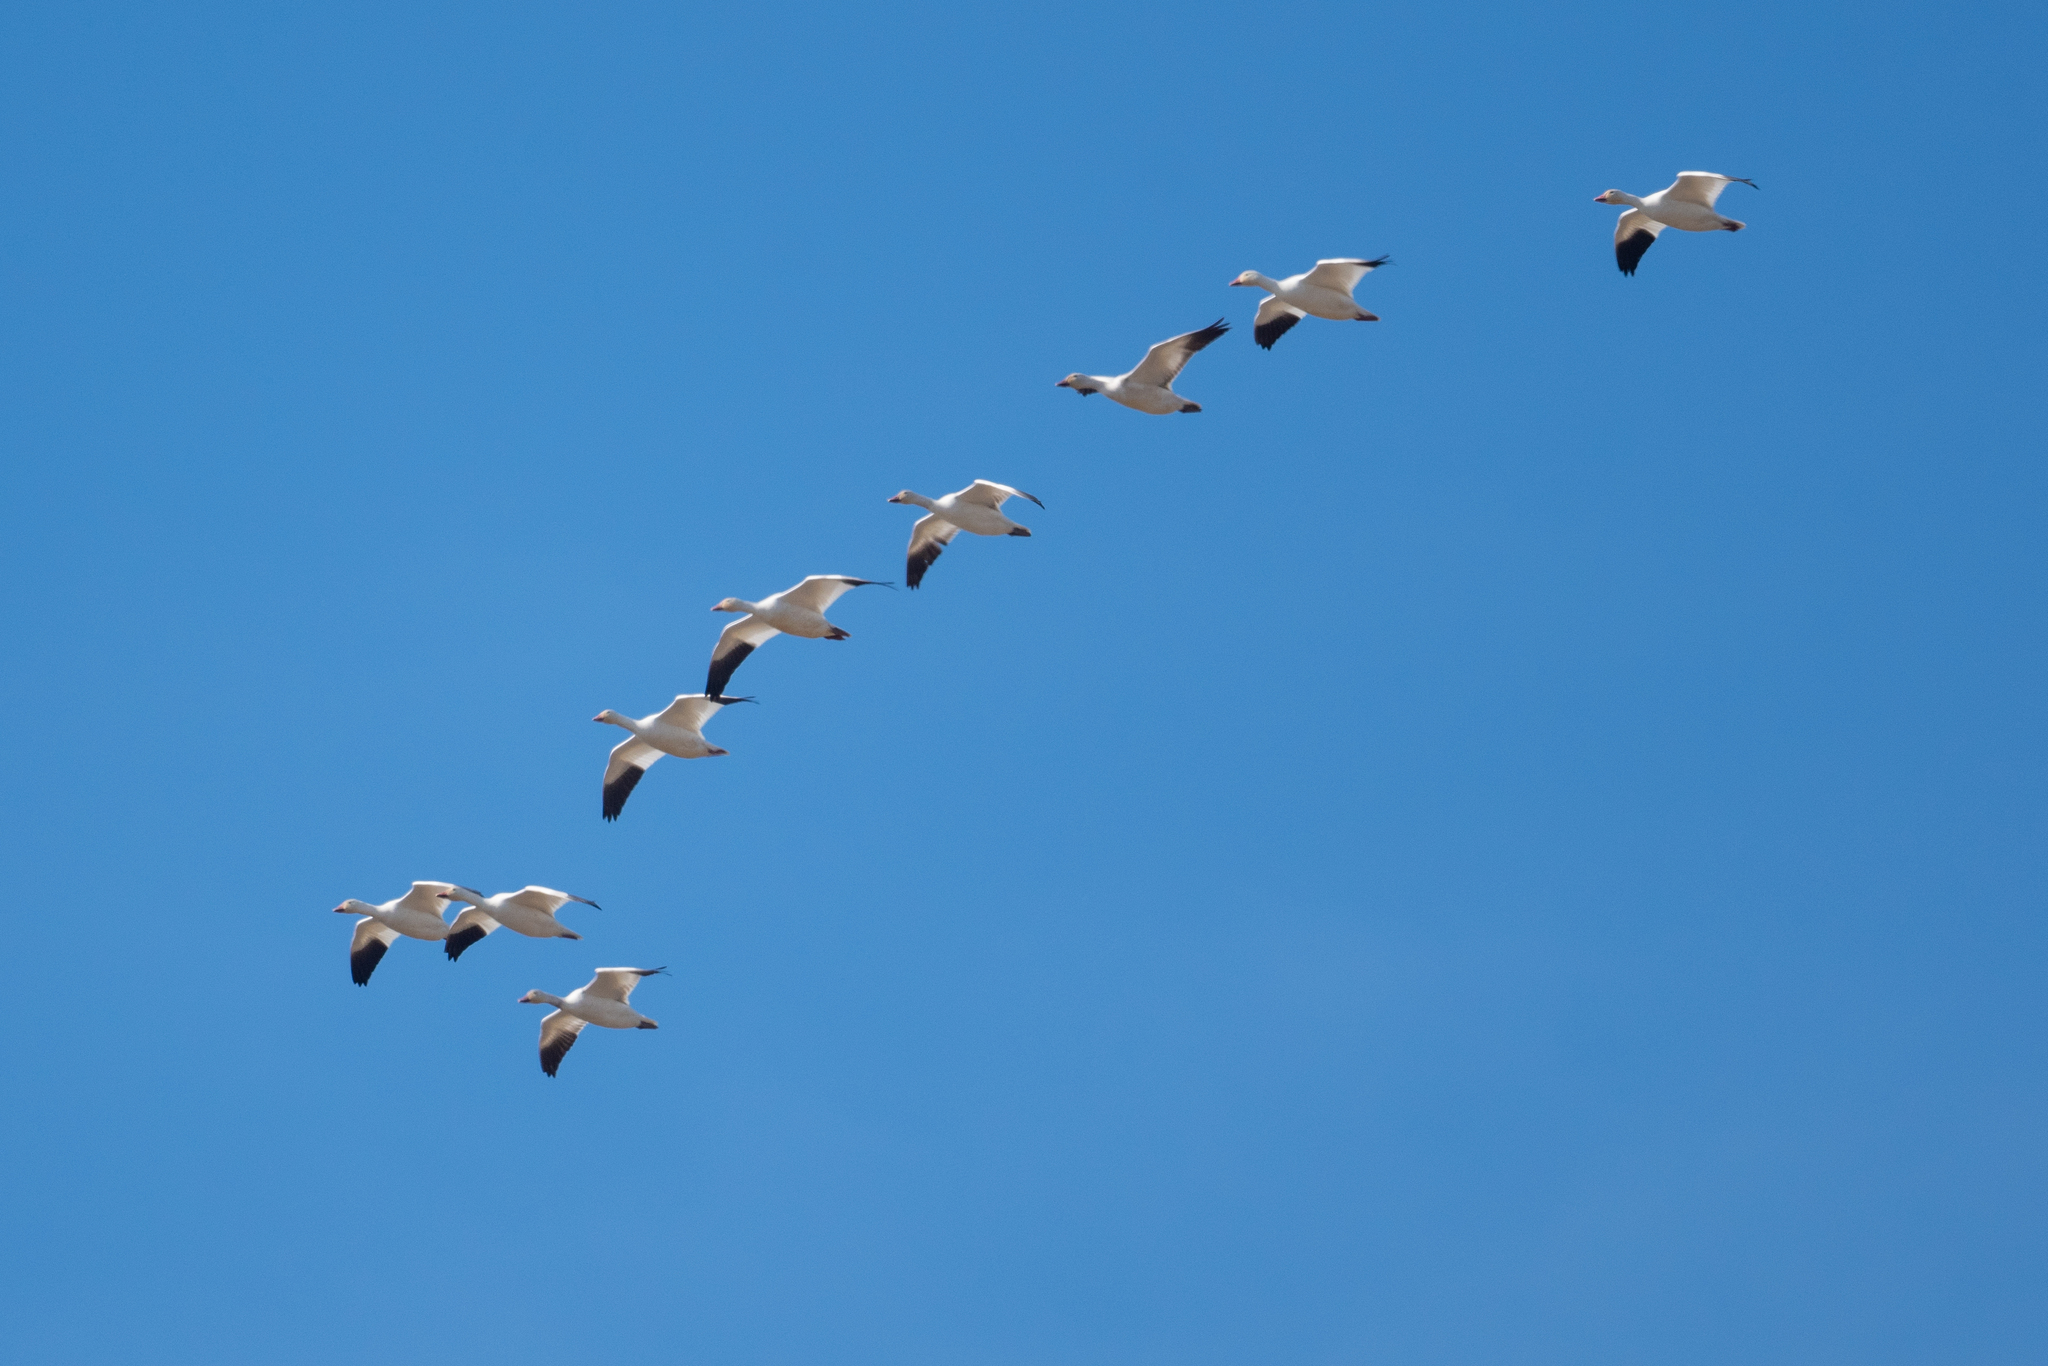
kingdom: Animalia
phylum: Chordata
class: Aves
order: Anseriformes
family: Anatidae
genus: Anser
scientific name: Anser caerulescens
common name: Snow goose
